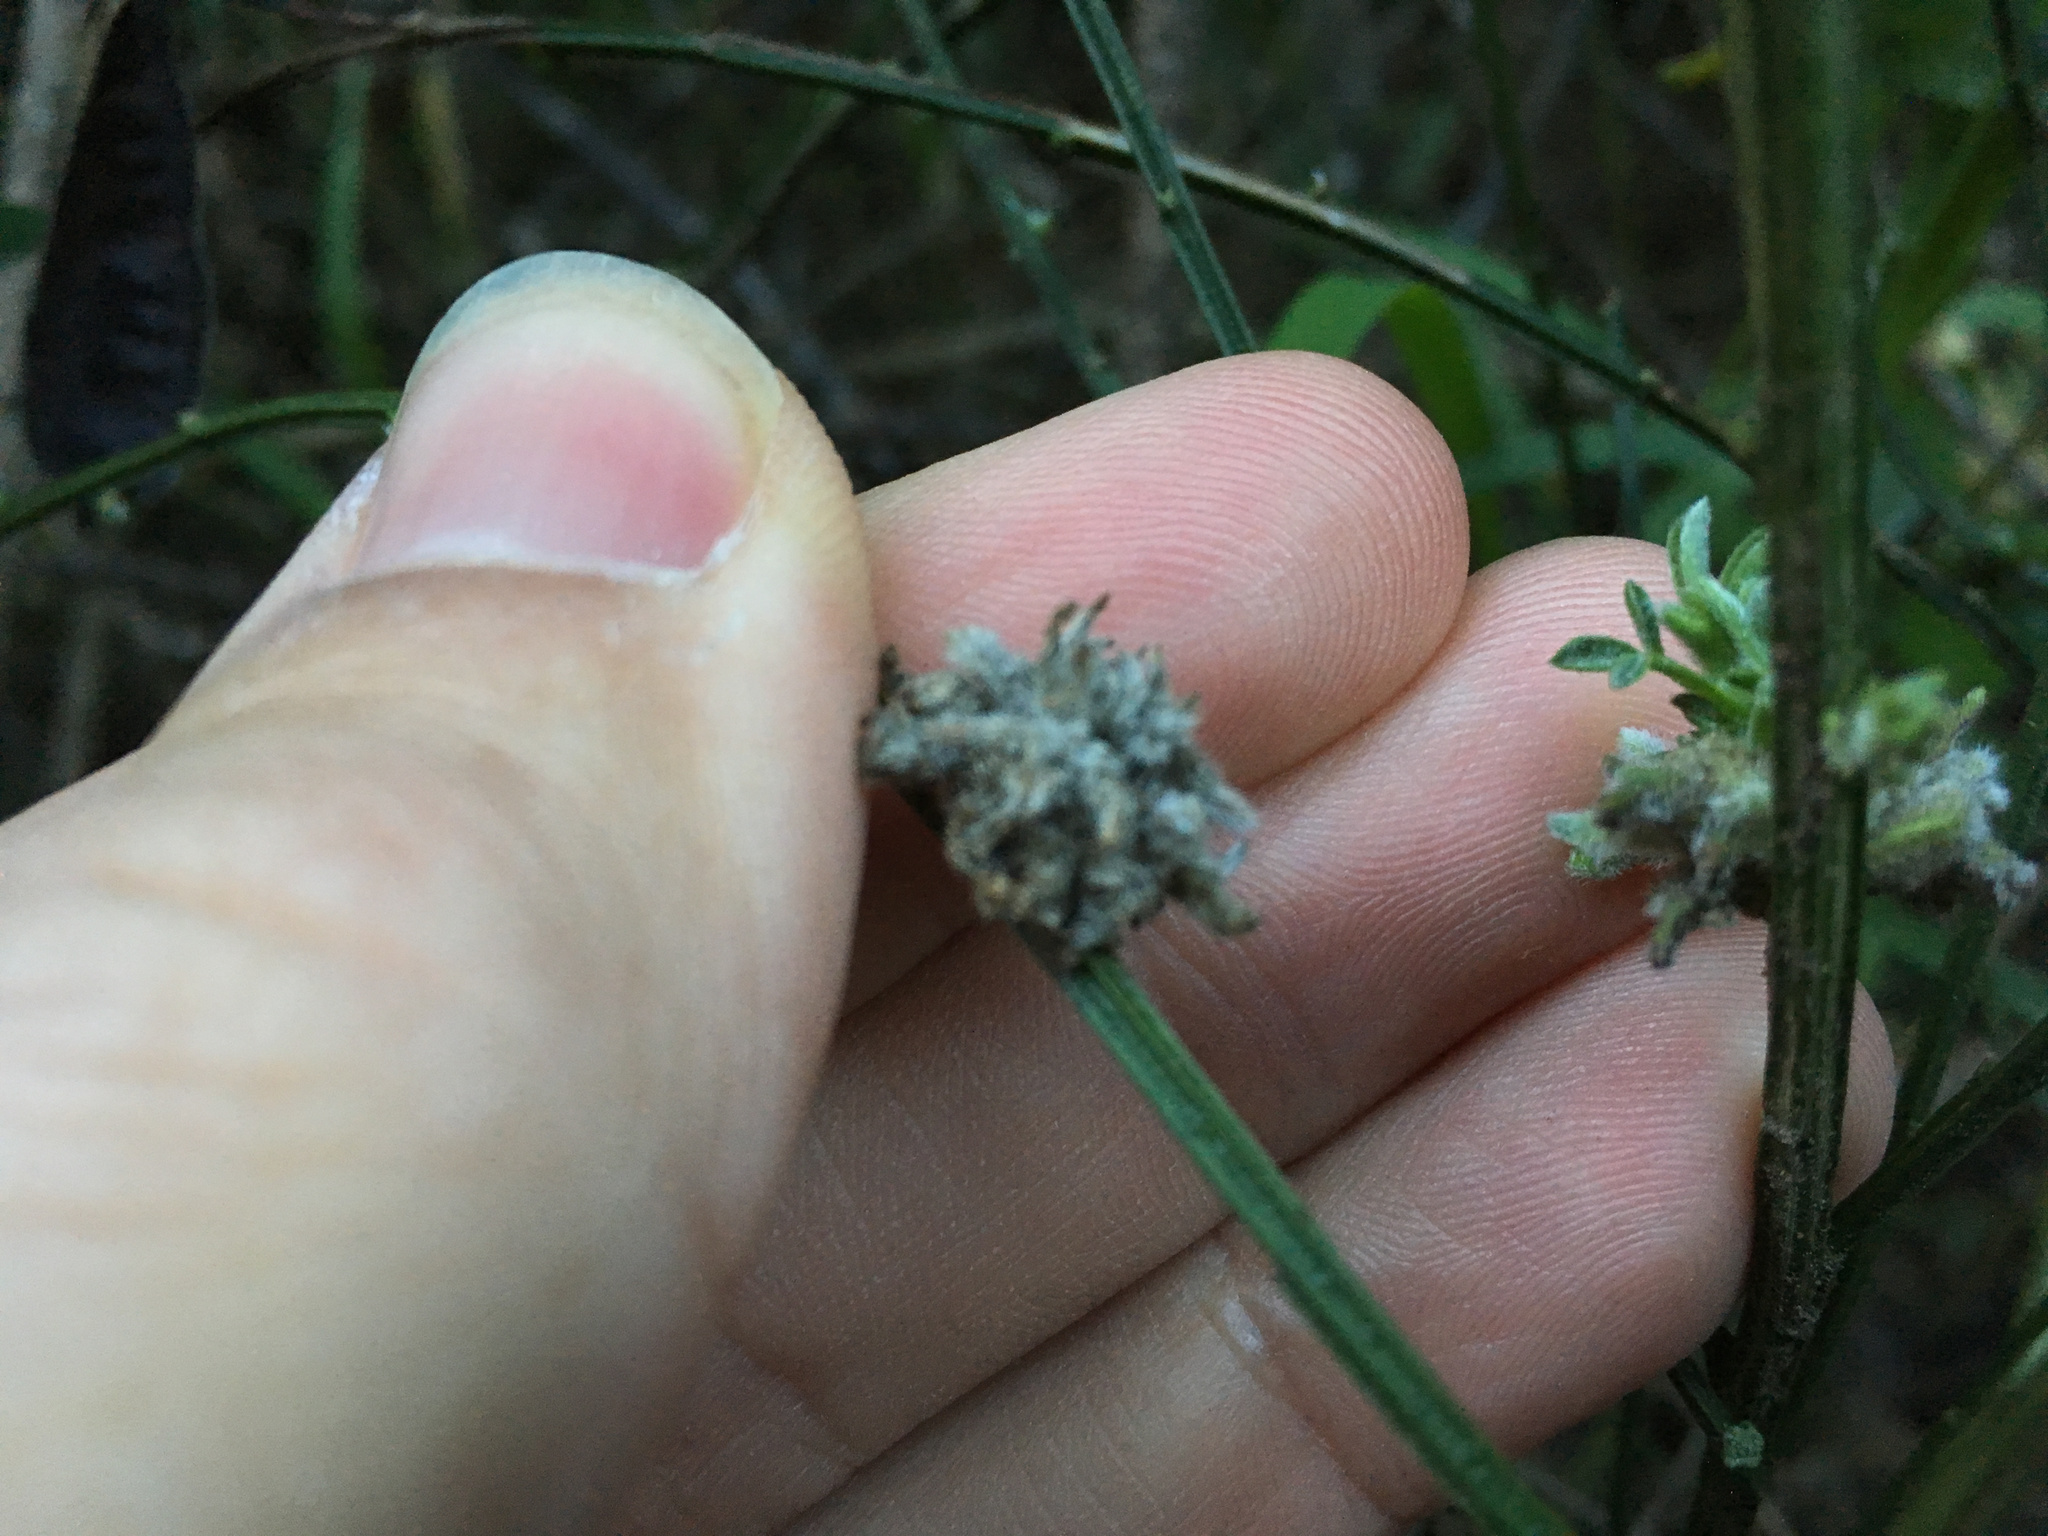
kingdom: Animalia
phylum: Arthropoda
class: Arachnida
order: Trombidiformes
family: Eriophyidae
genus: Aceria
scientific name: Aceria genistae
